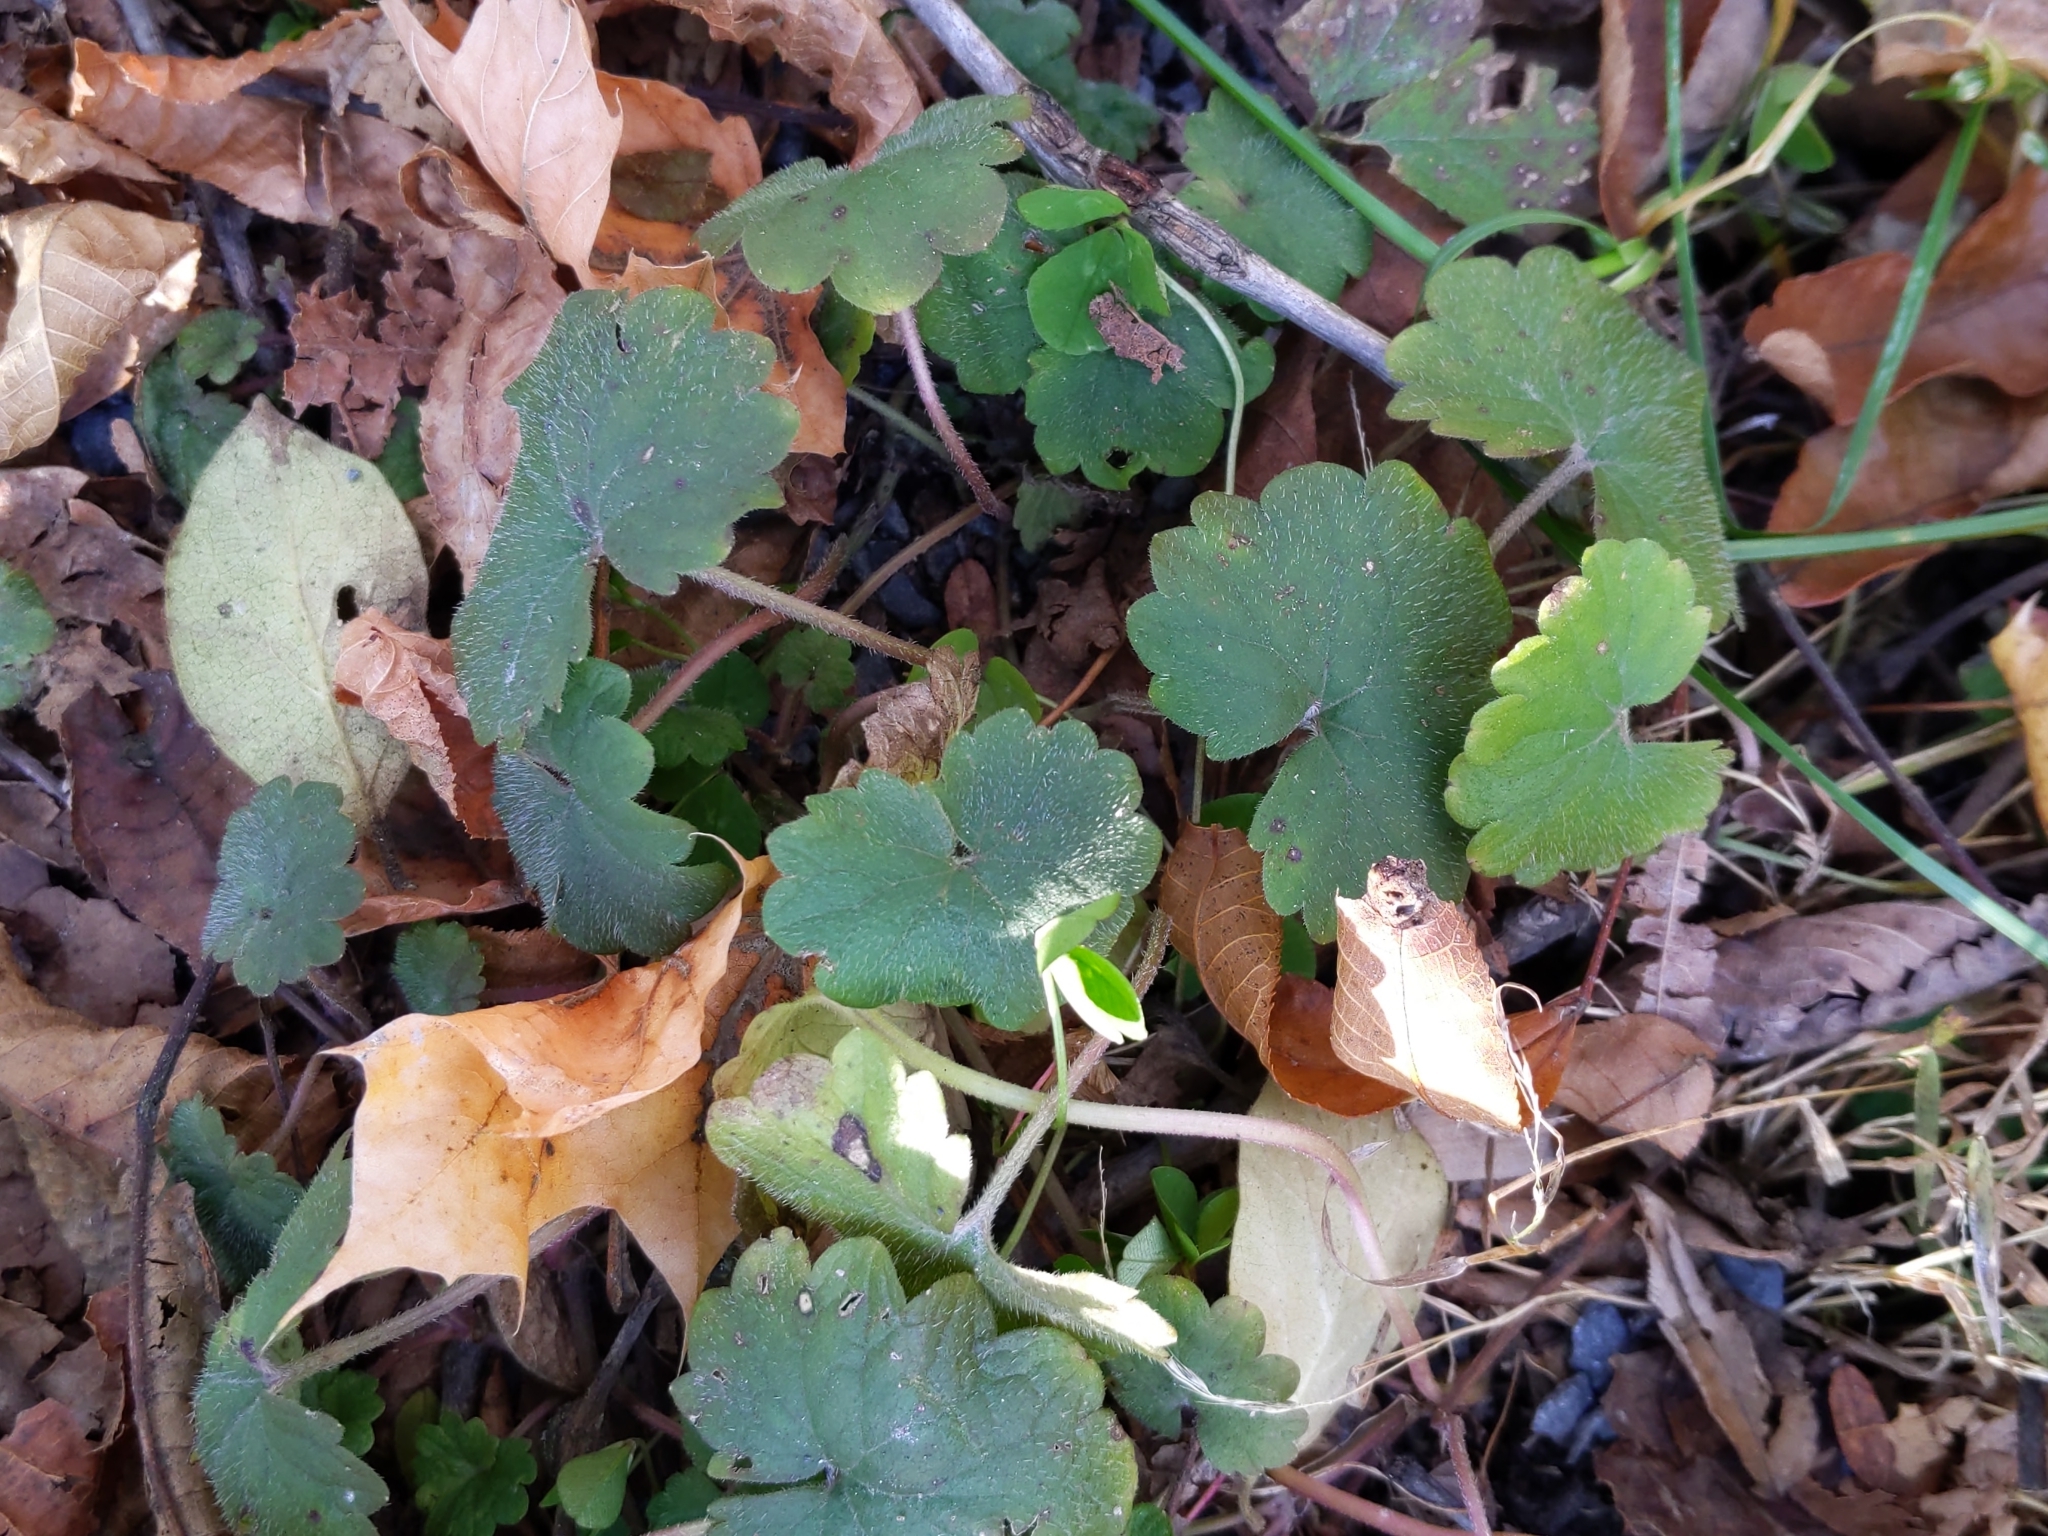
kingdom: Plantae
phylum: Tracheophyta
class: Magnoliopsida
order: Lamiales
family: Lamiaceae
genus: Glechoma
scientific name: Glechoma hederacea
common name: Ground ivy
